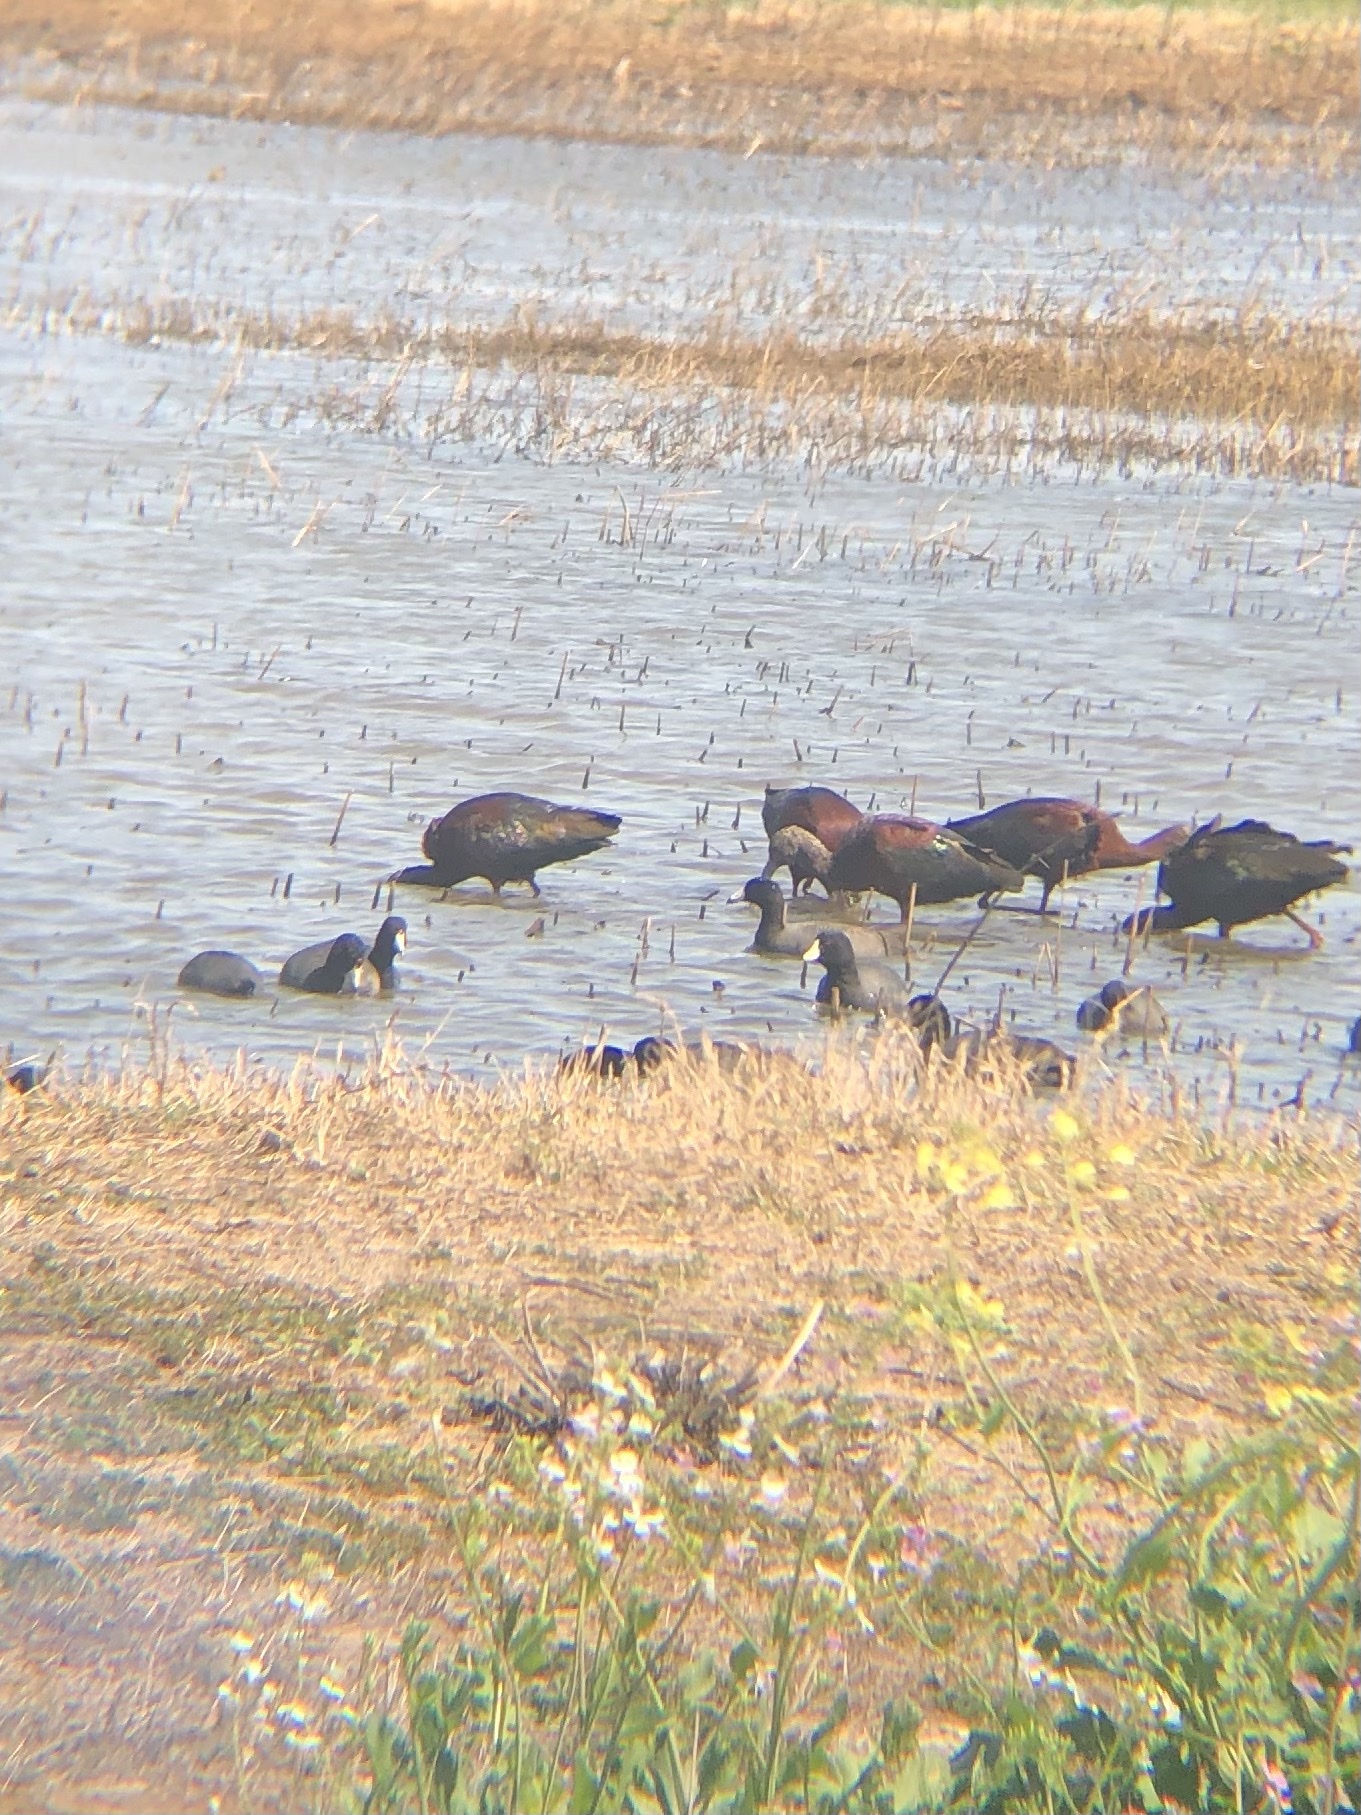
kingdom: Animalia
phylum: Chordata
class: Aves
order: Gruiformes
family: Rallidae
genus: Fulica
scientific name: Fulica americana
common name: American coot
